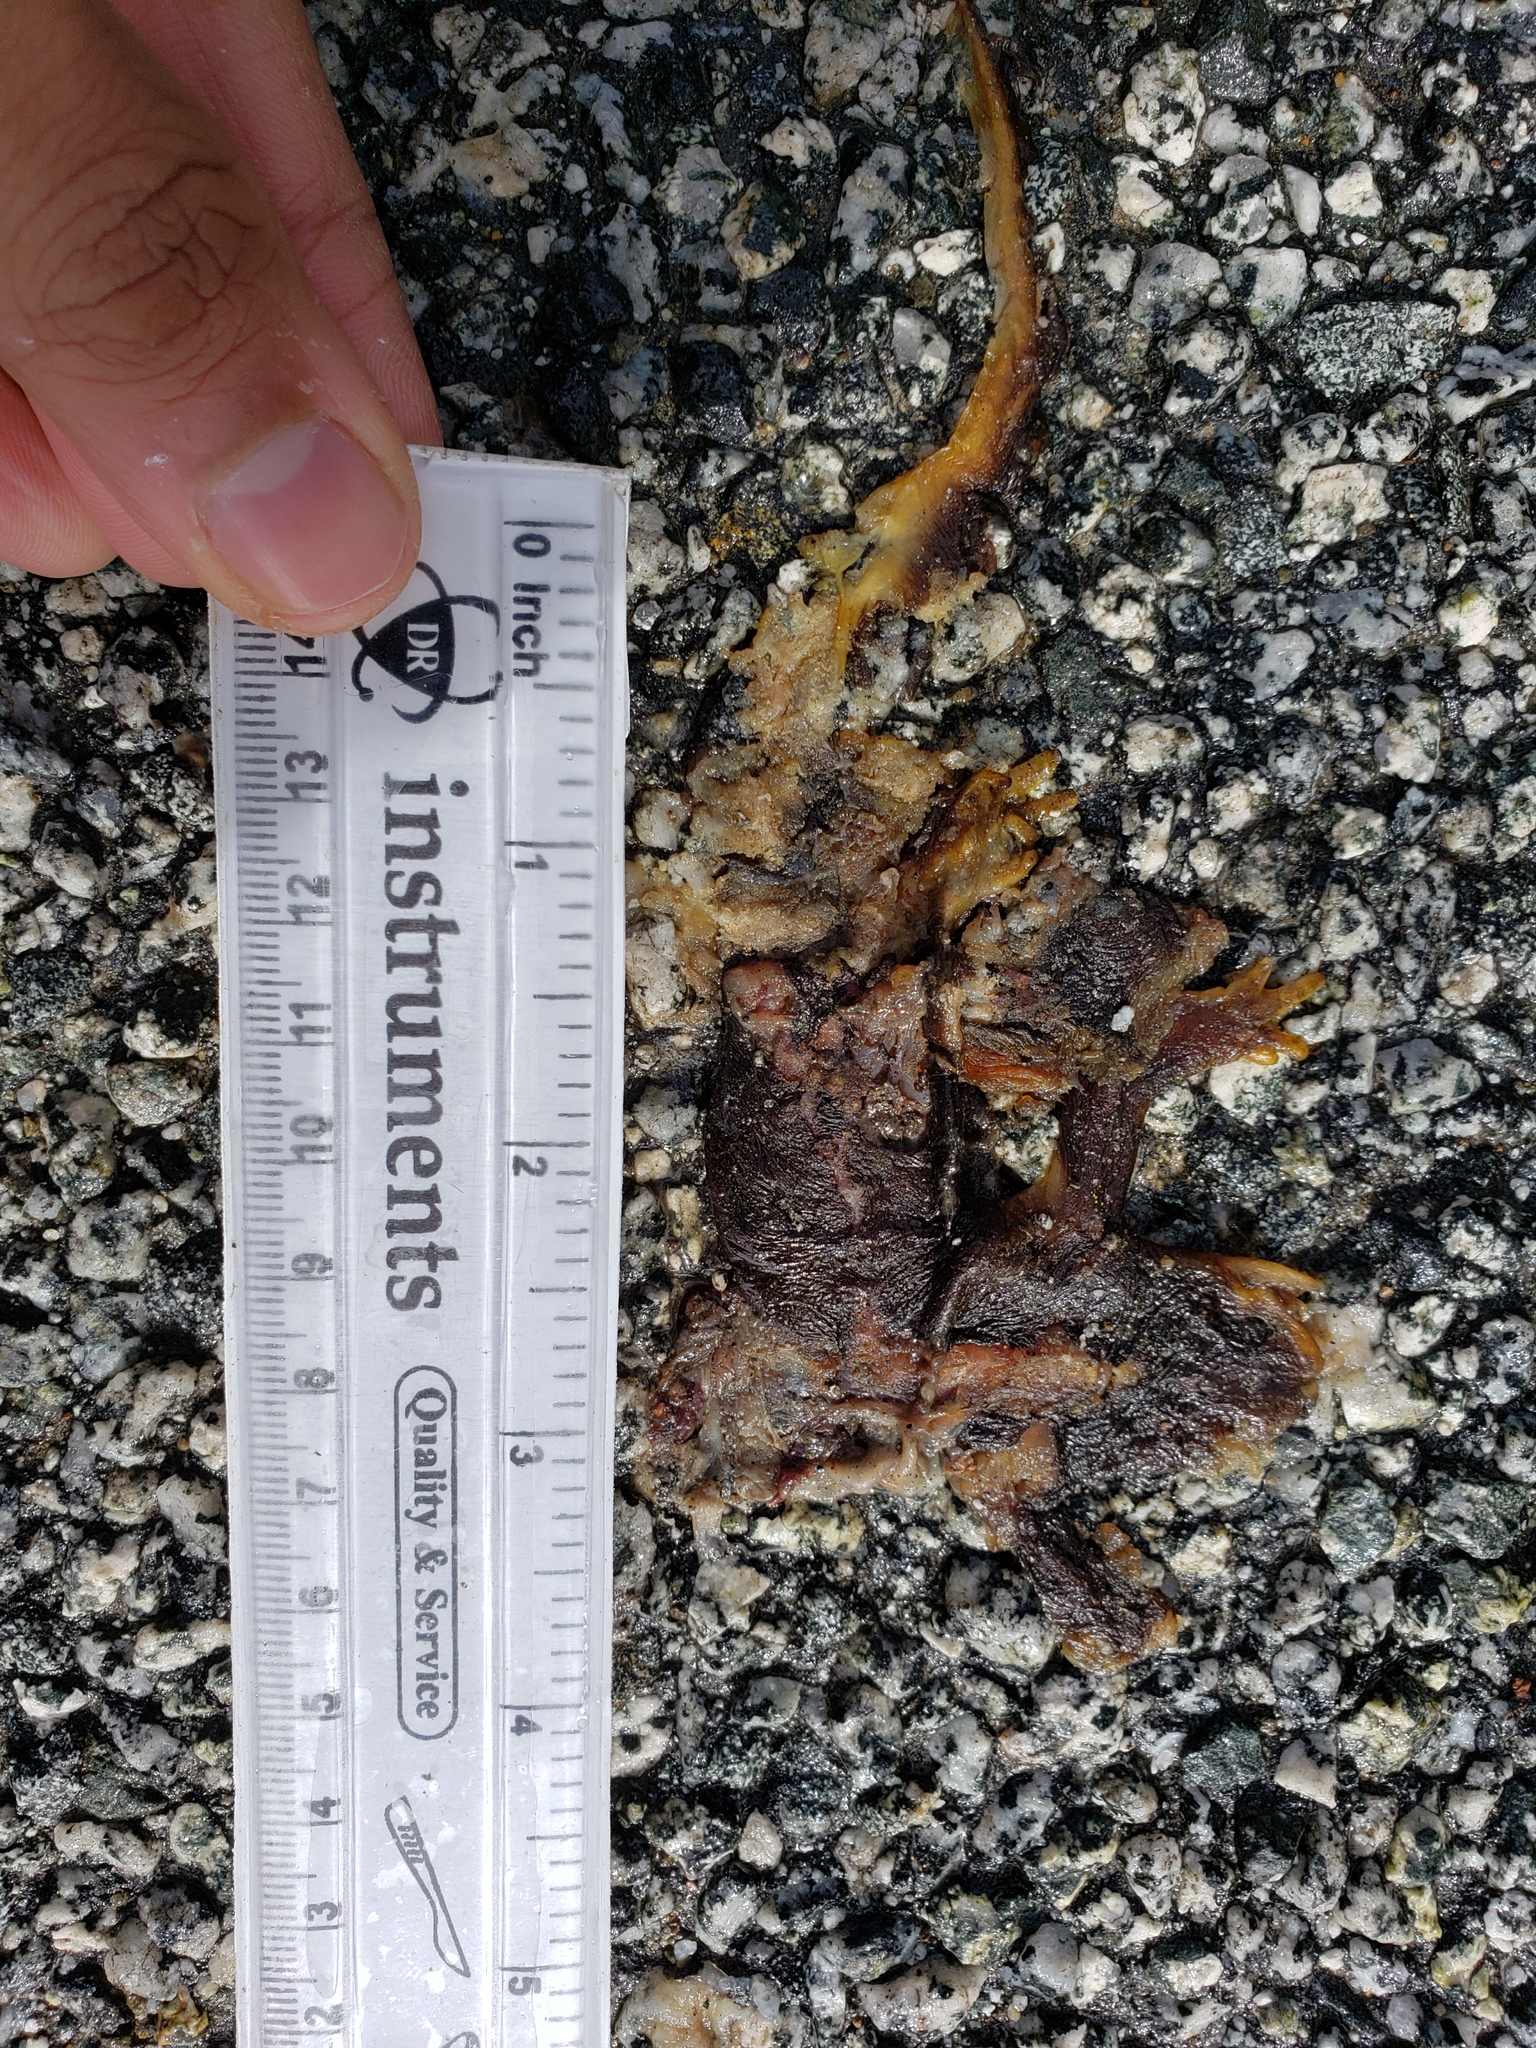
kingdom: Animalia
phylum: Chordata
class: Amphibia
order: Caudata
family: Salamandridae
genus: Taricha
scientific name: Taricha
